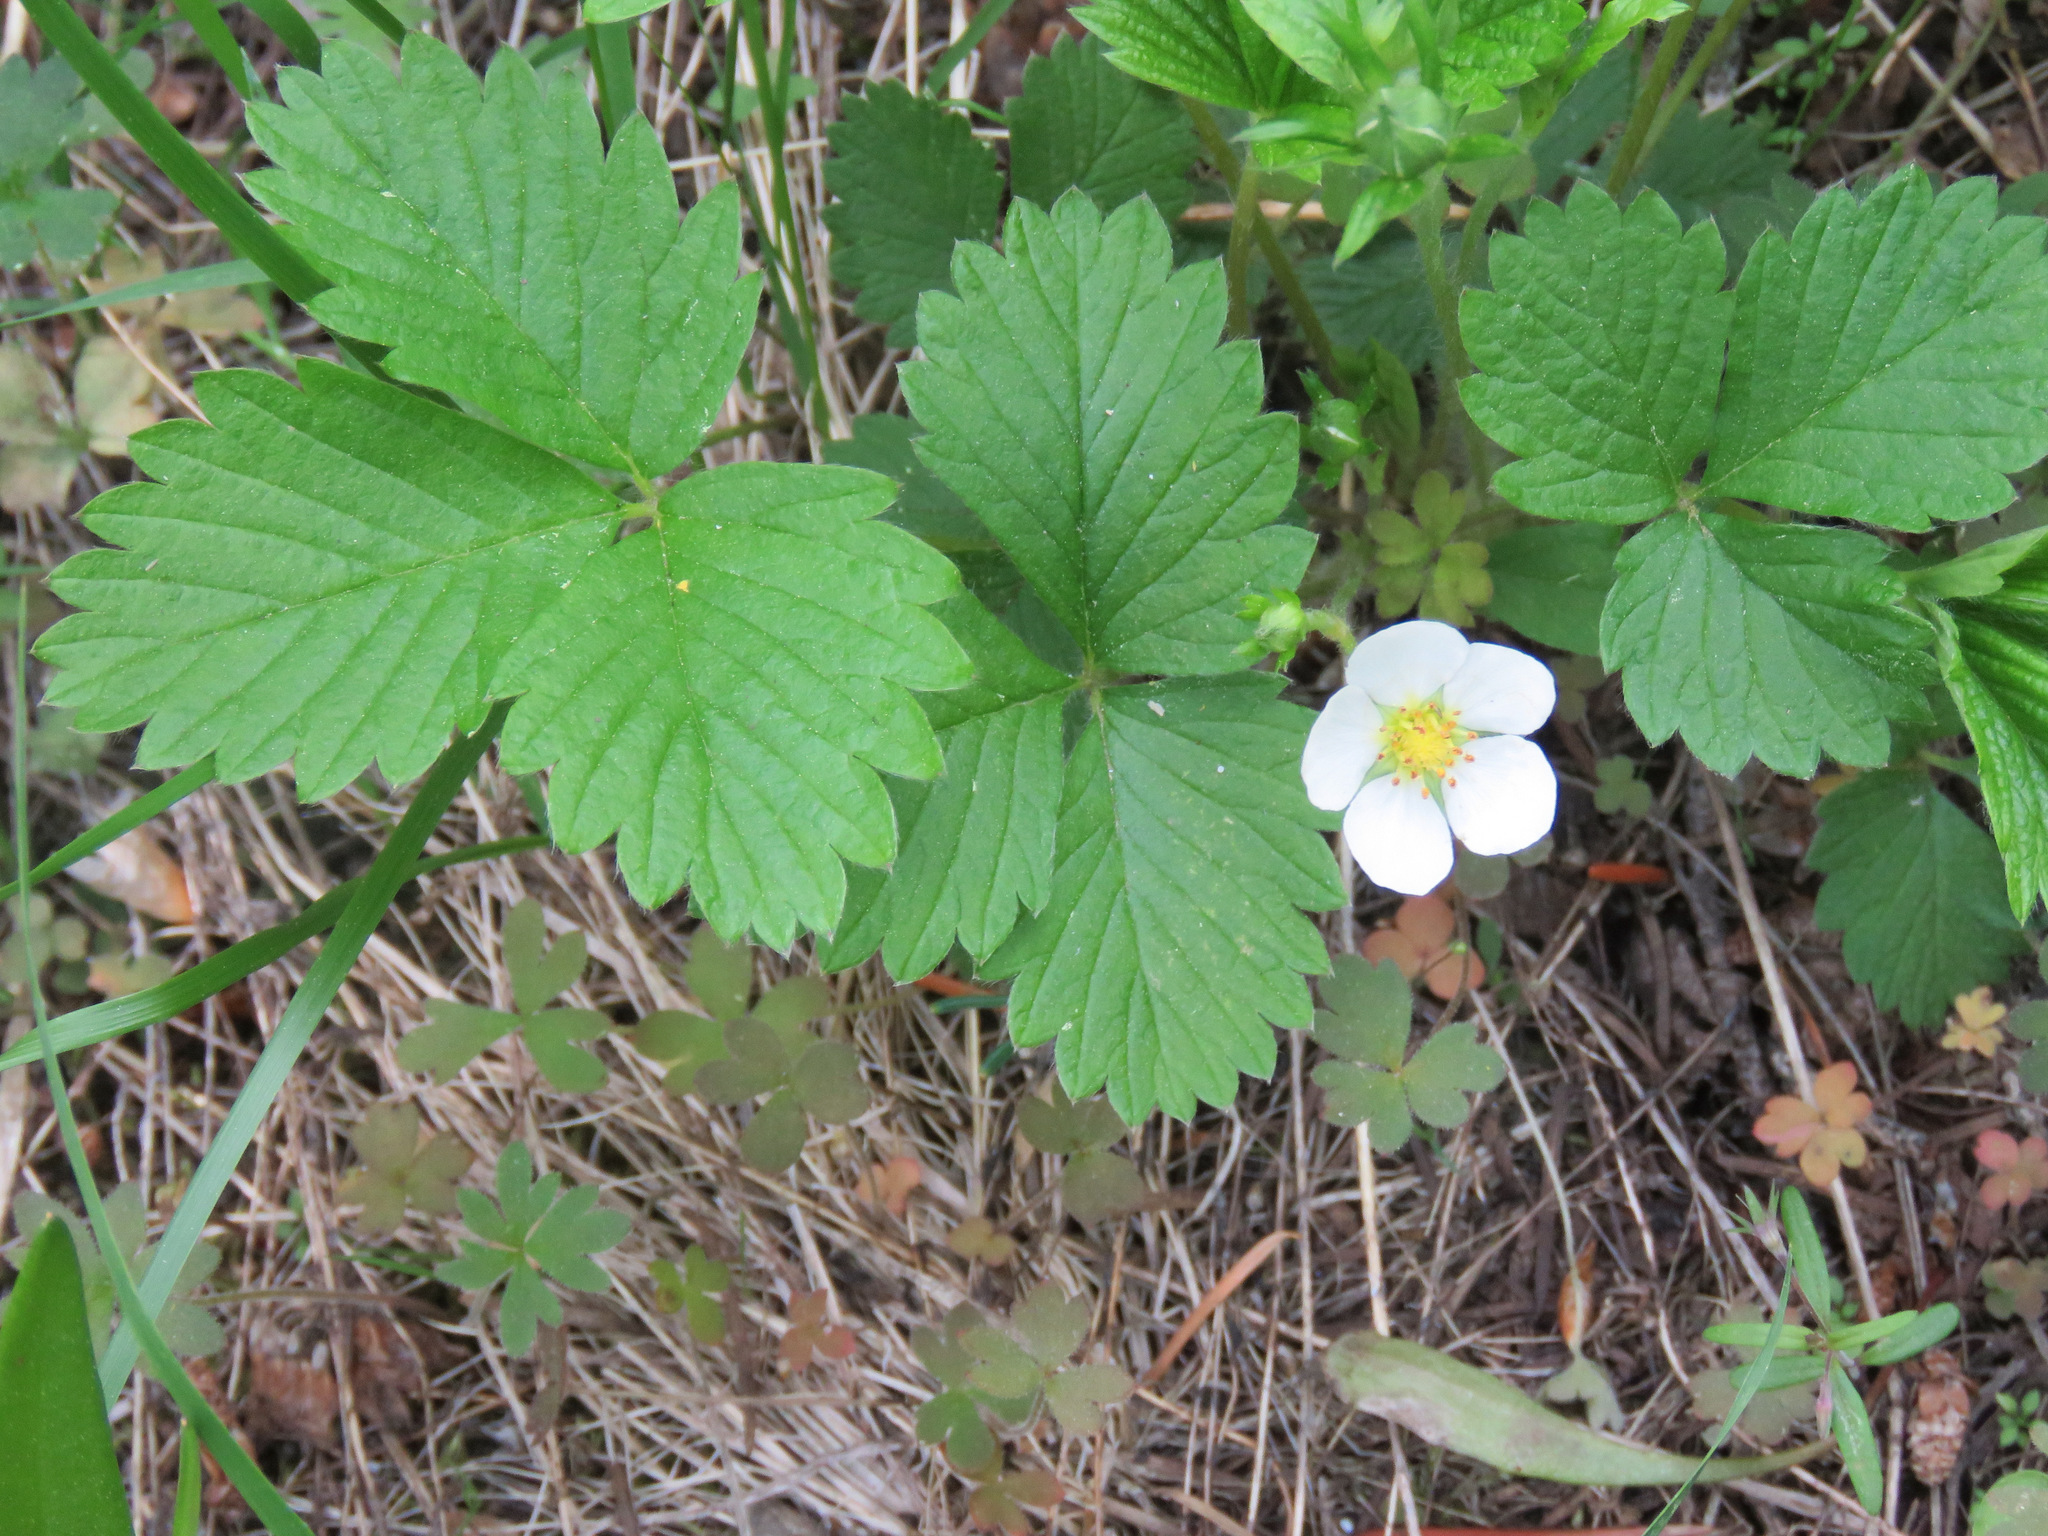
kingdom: Plantae
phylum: Tracheophyta
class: Magnoliopsida
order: Rosales
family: Rosaceae
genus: Fragaria
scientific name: Fragaria vesca
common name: Wild strawberry
